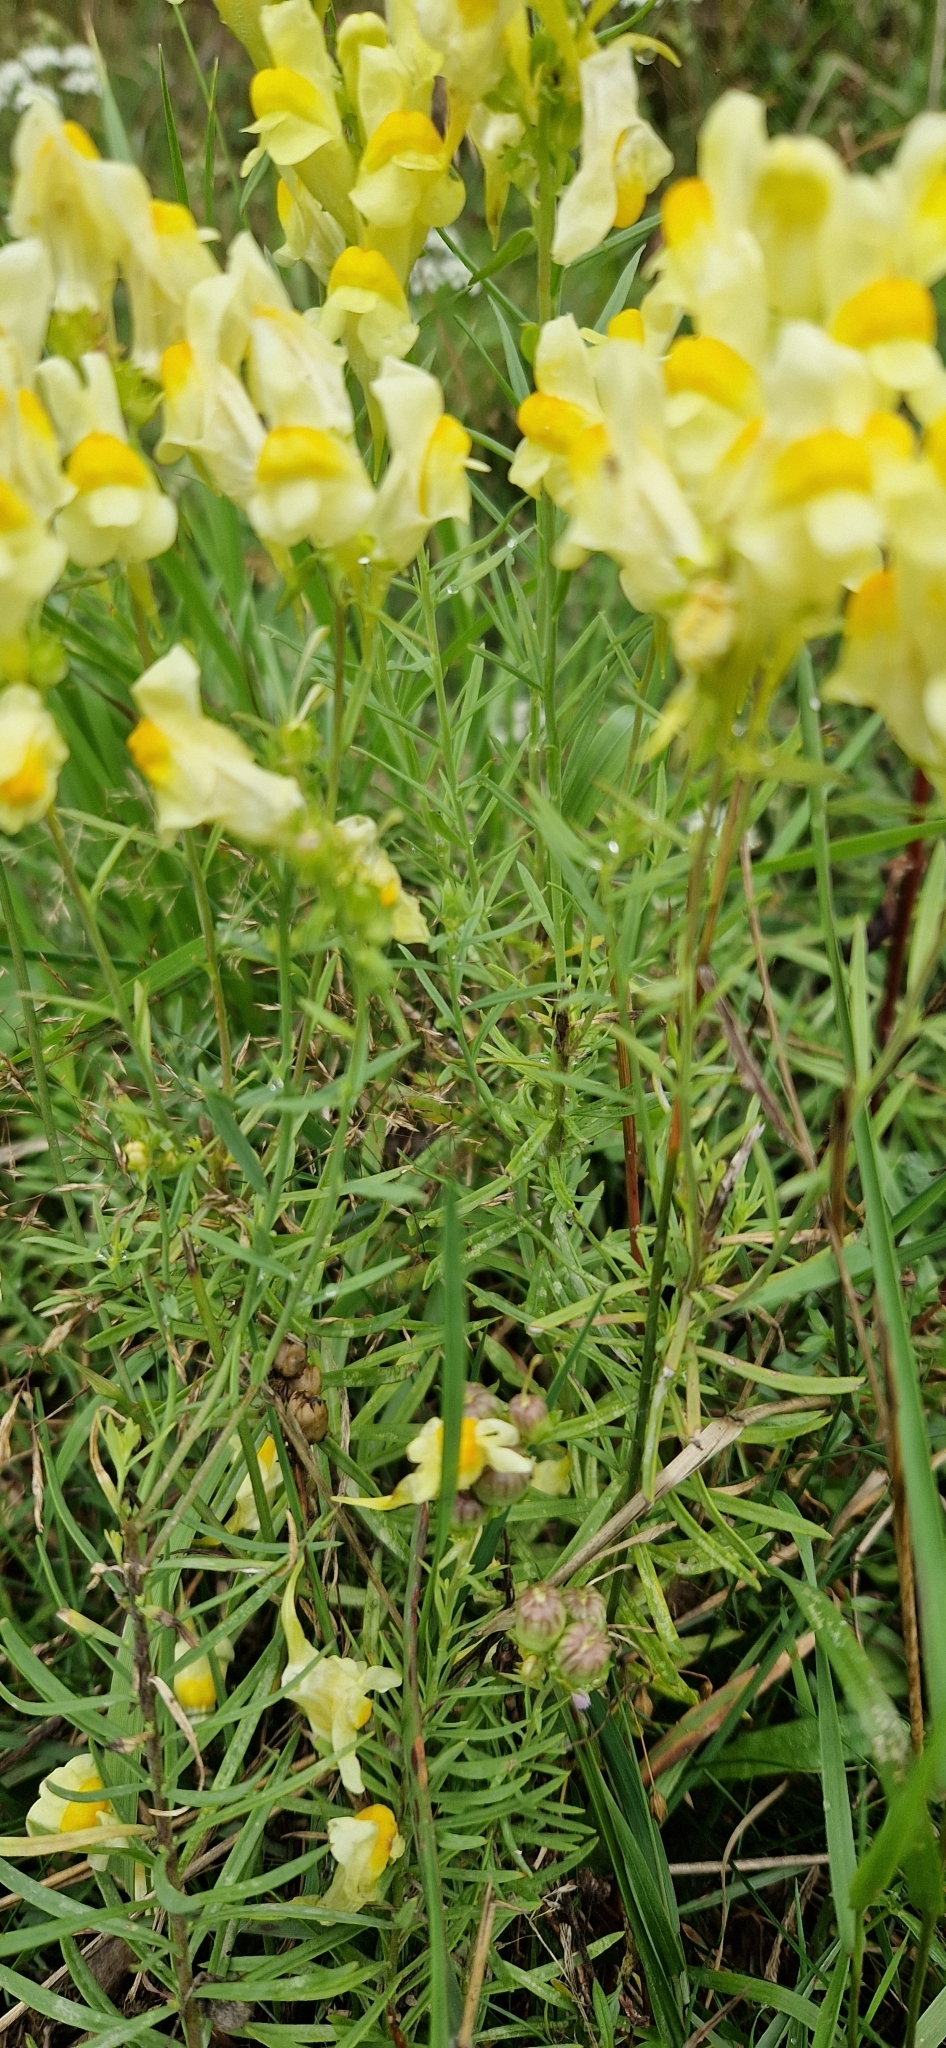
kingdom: Plantae
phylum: Tracheophyta
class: Magnoliopsida
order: Lamiales
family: Plantaginaceae
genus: Linaria
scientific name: Linaria vulgaris
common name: Butter and eggs
